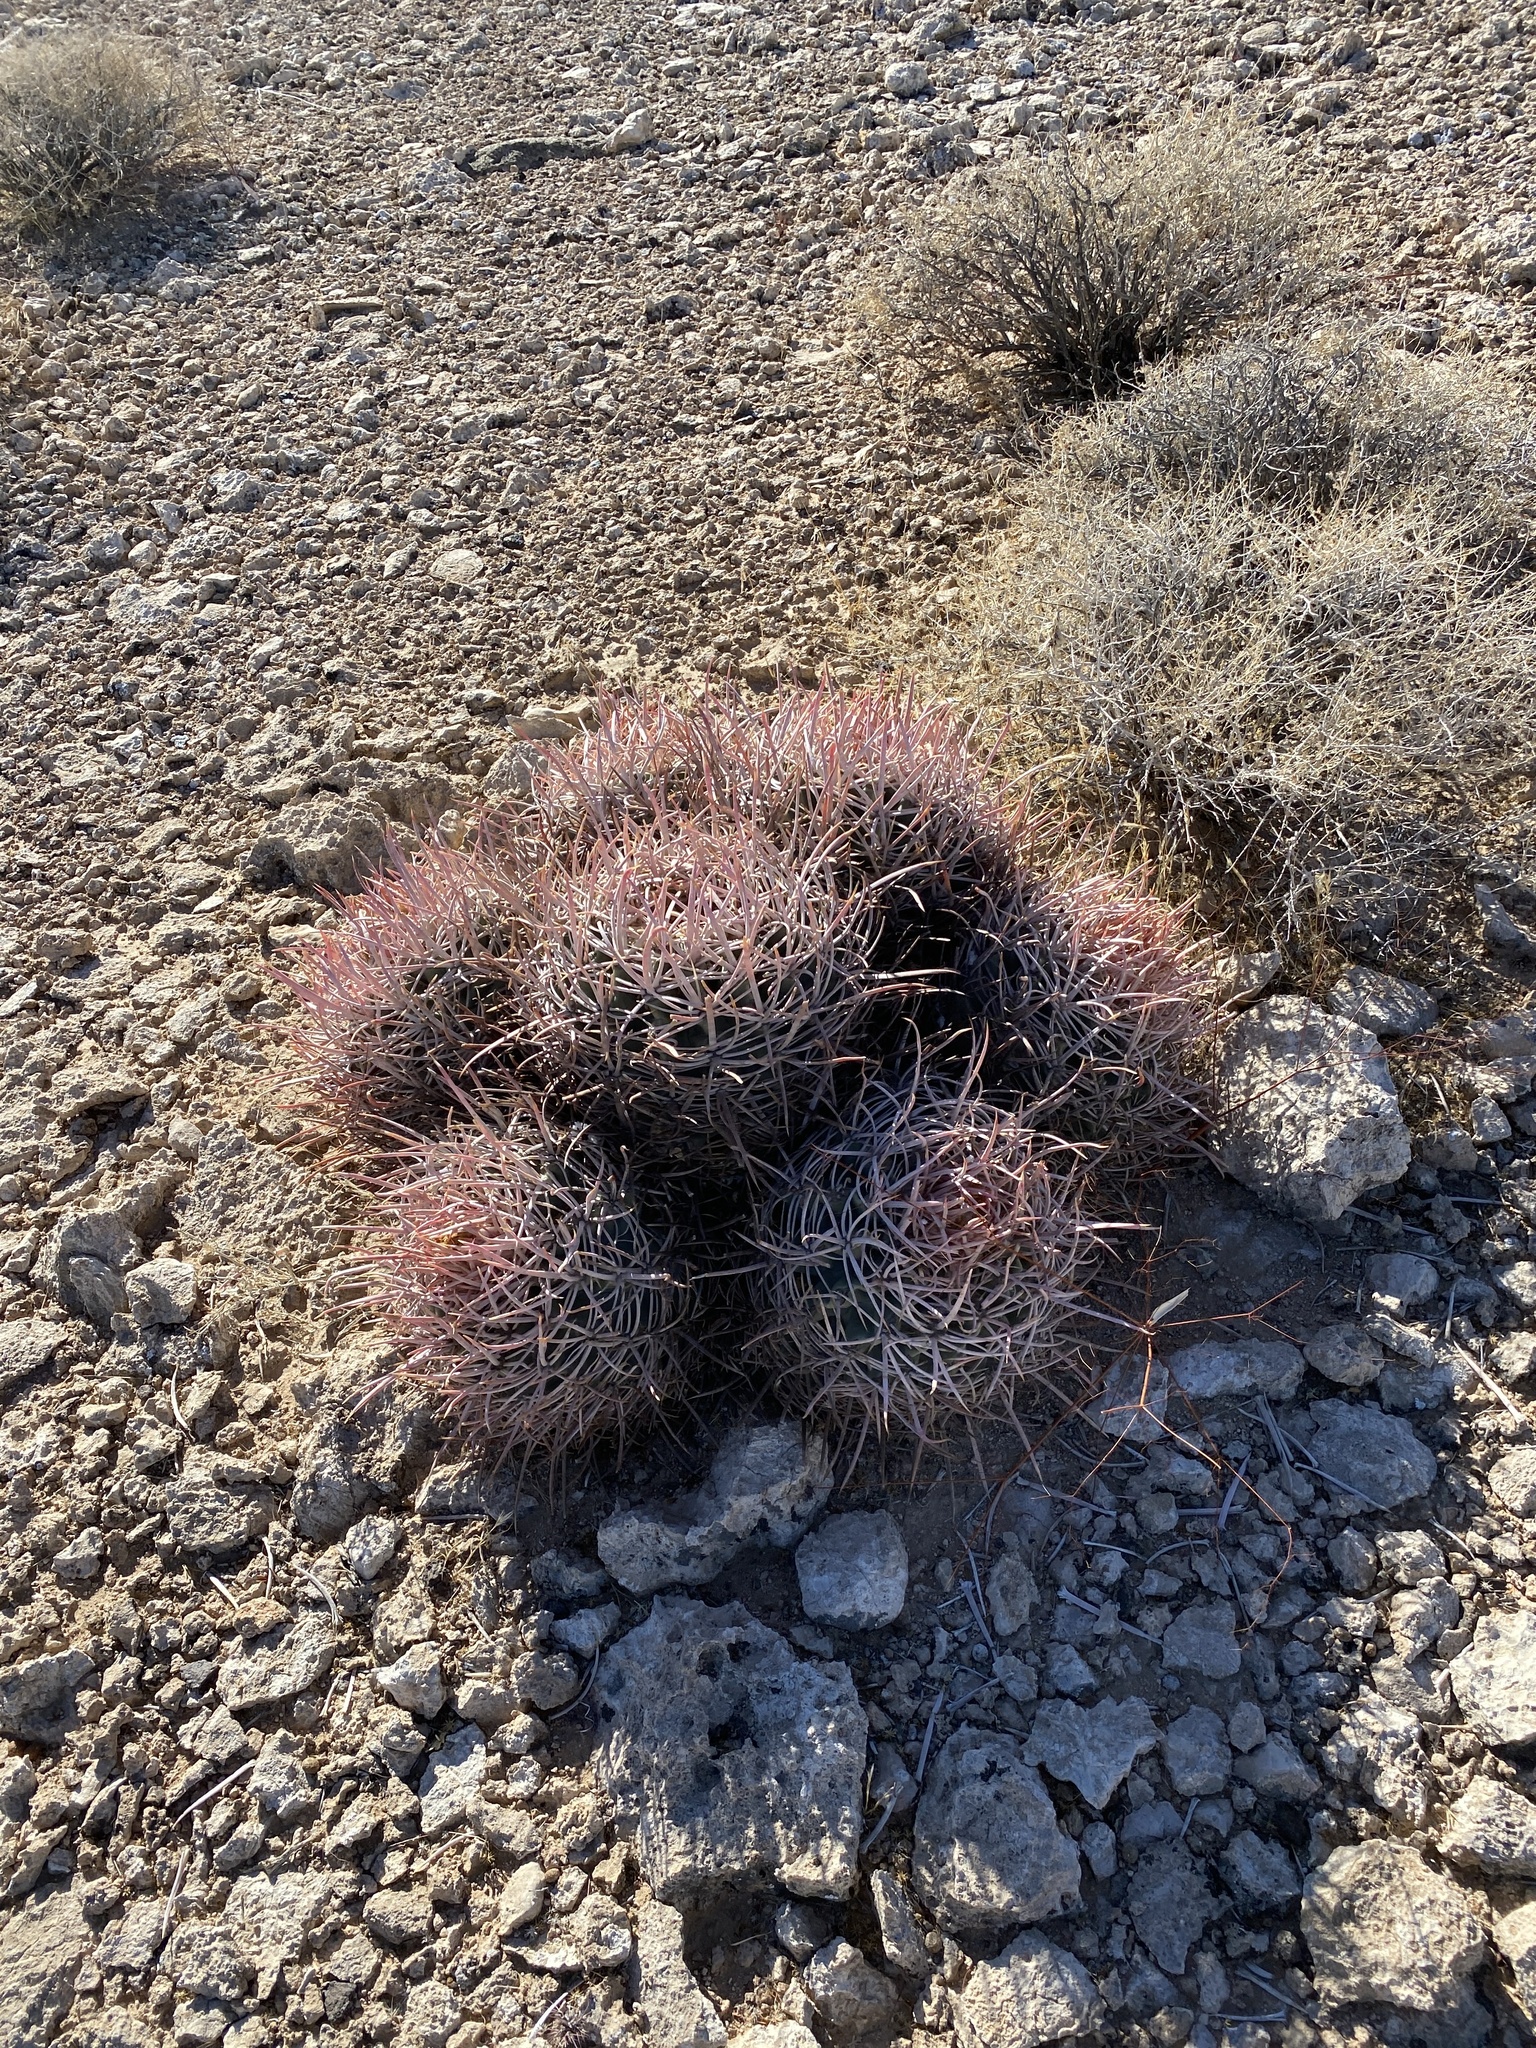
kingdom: Plantae
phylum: Tracheophyta
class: Magnoliopsida
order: Caryophyllales
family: Cactaceae
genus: Echinocactus
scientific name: Echinocactus polycephalus
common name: Cottontop cactus
